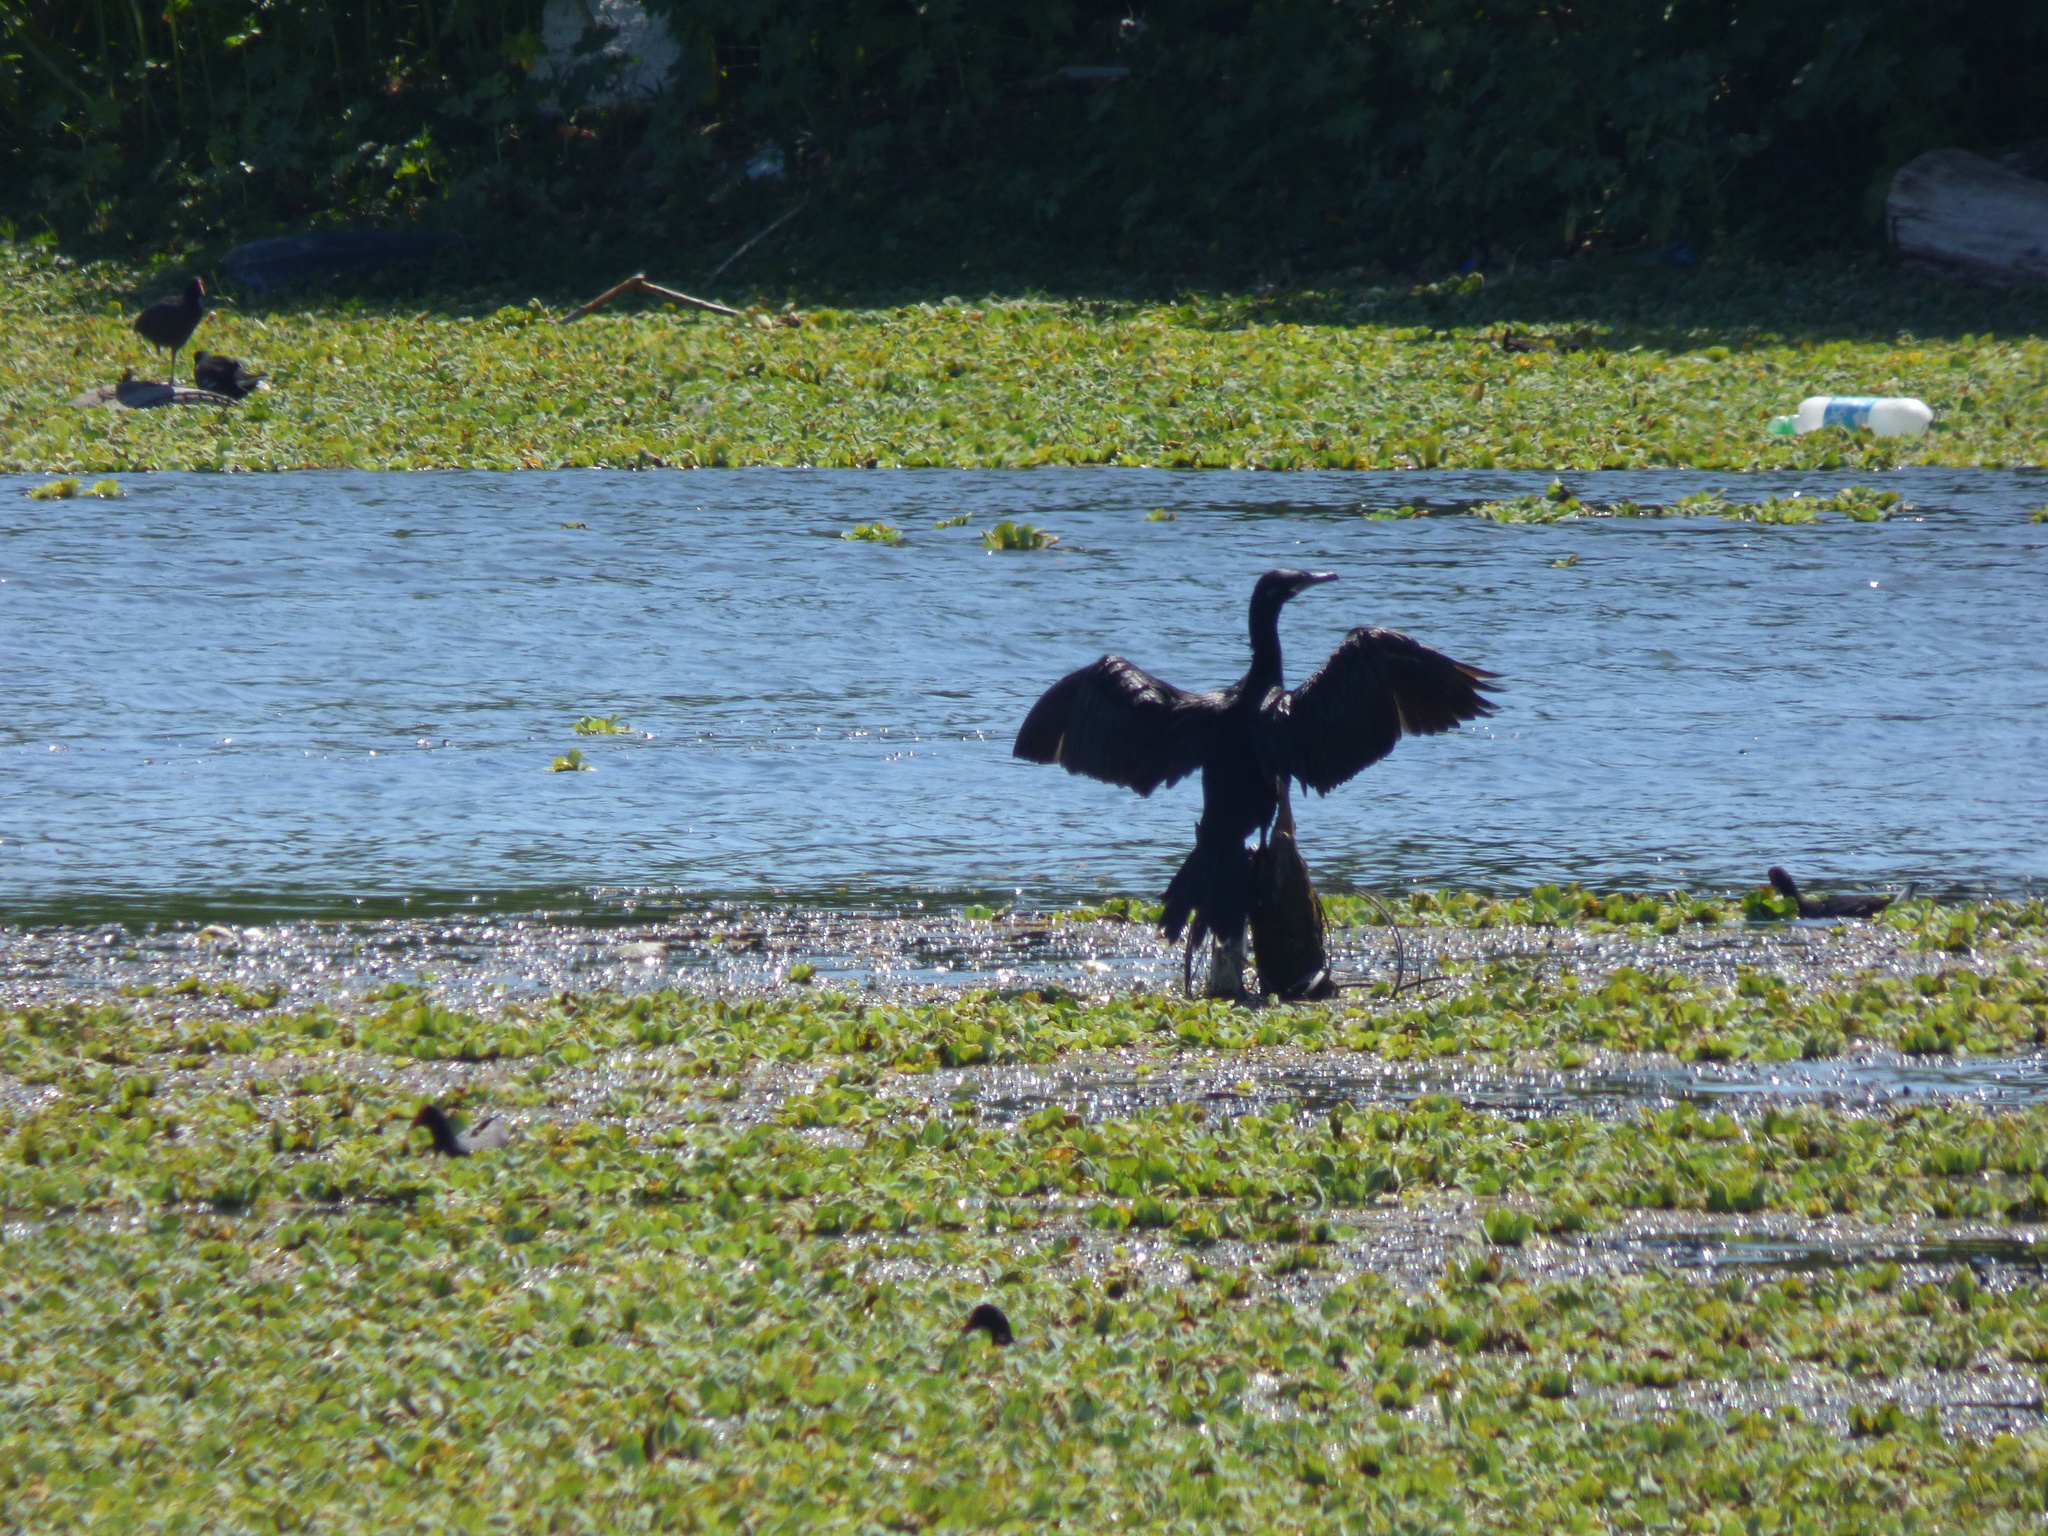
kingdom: Animalia
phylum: Chordata
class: Aves
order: Suliformes
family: Phalacrocoracidae
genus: Phalacrocorax
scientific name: Phalacrocorax brasilianus
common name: Neotropic cormorant
